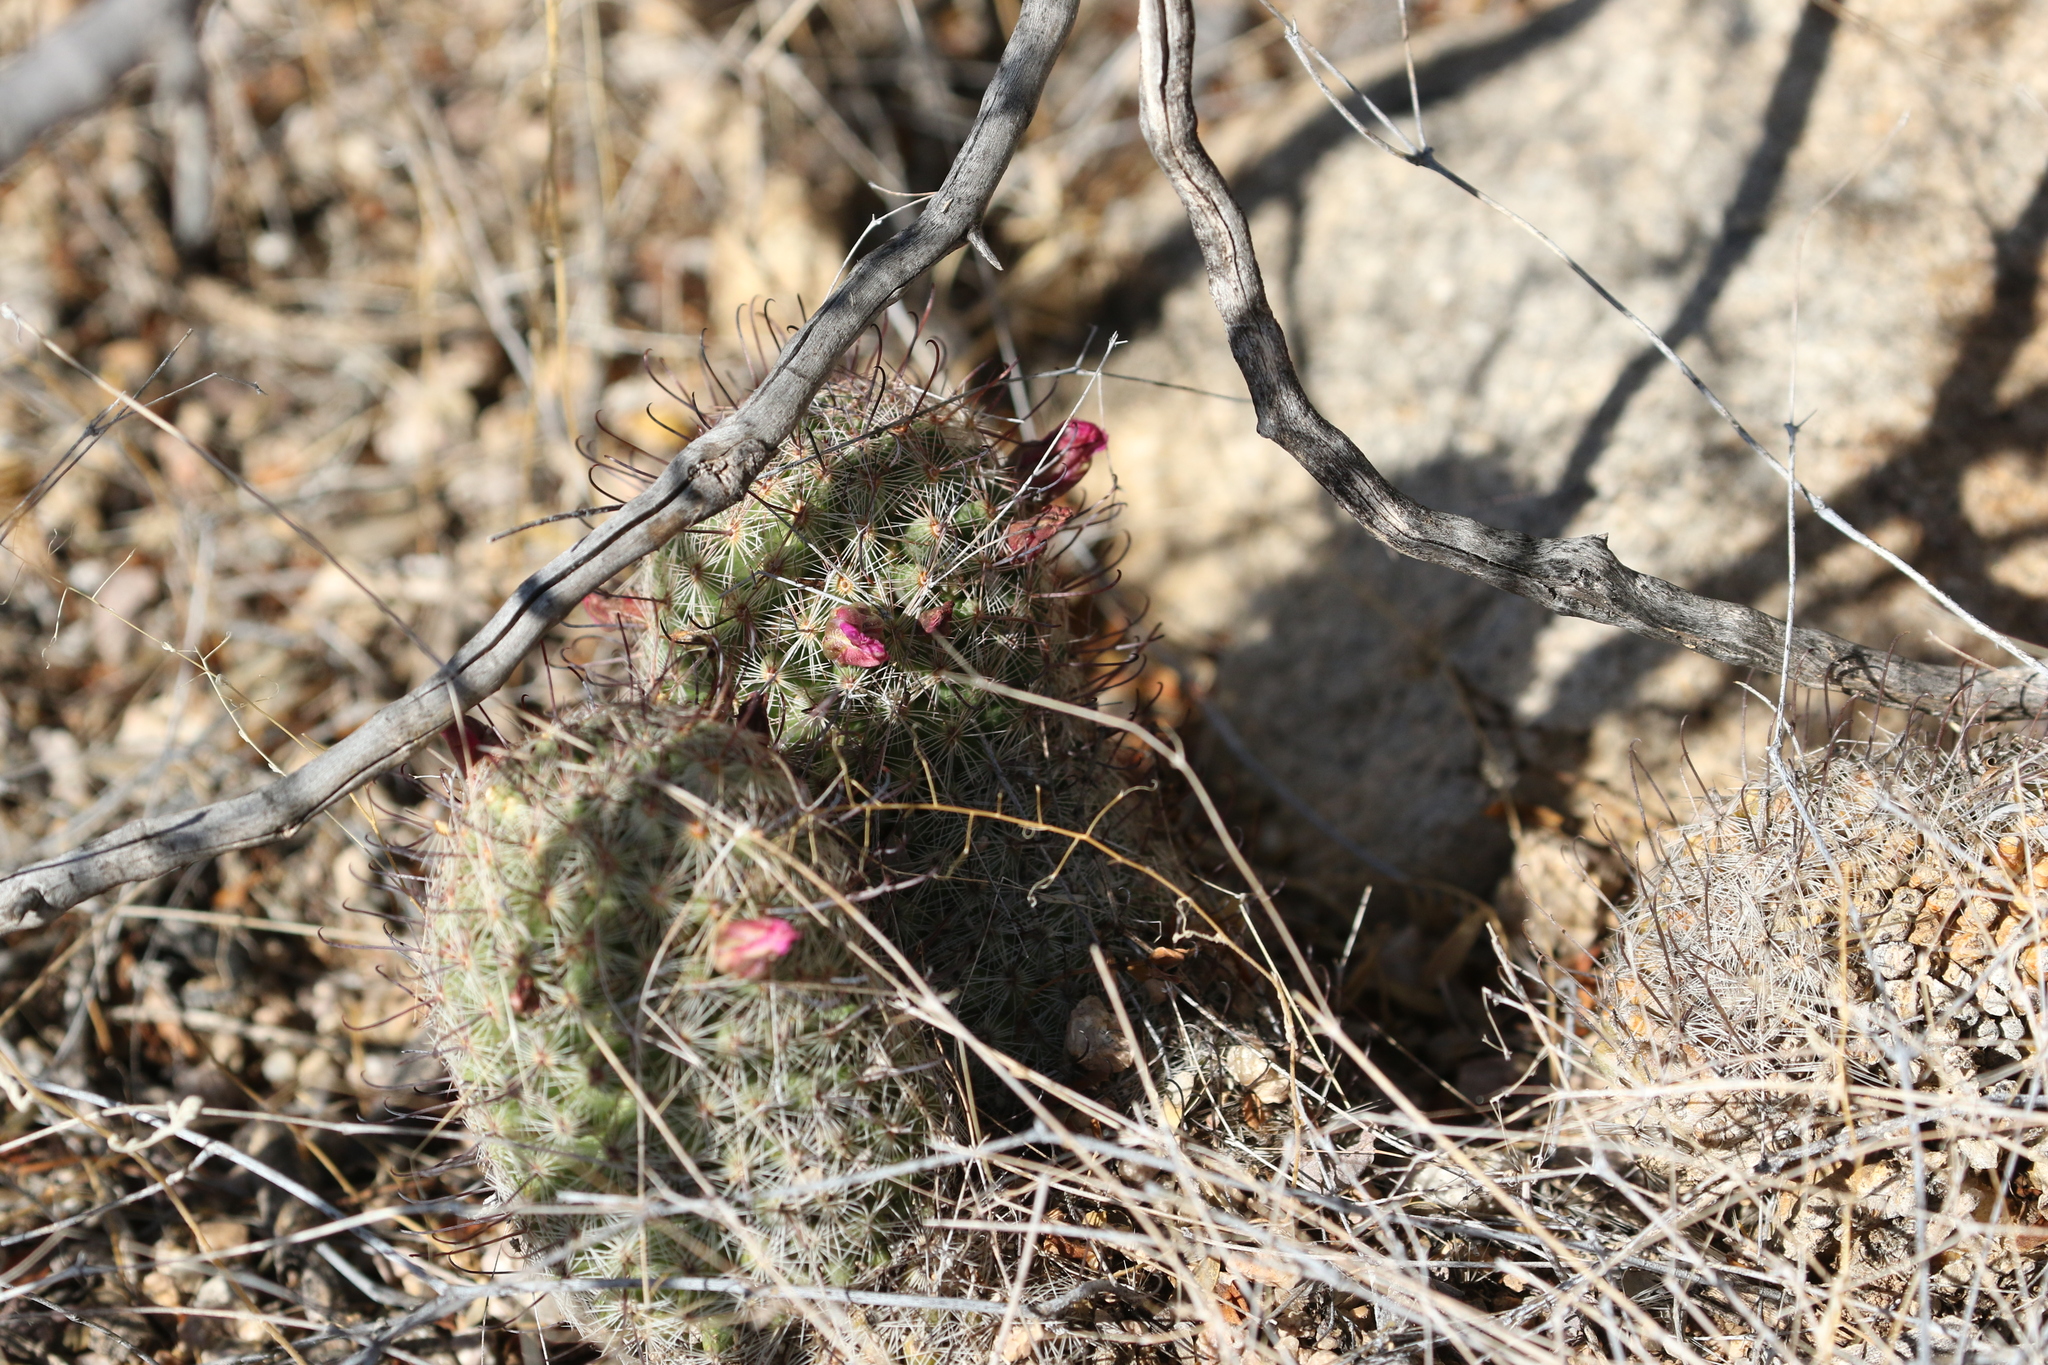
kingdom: Plantae
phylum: Tracheophyta
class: Magnoliopsida
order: Caryophyllales
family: Cactaceae
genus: Cochemiea
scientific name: Cochemiea grahamii
